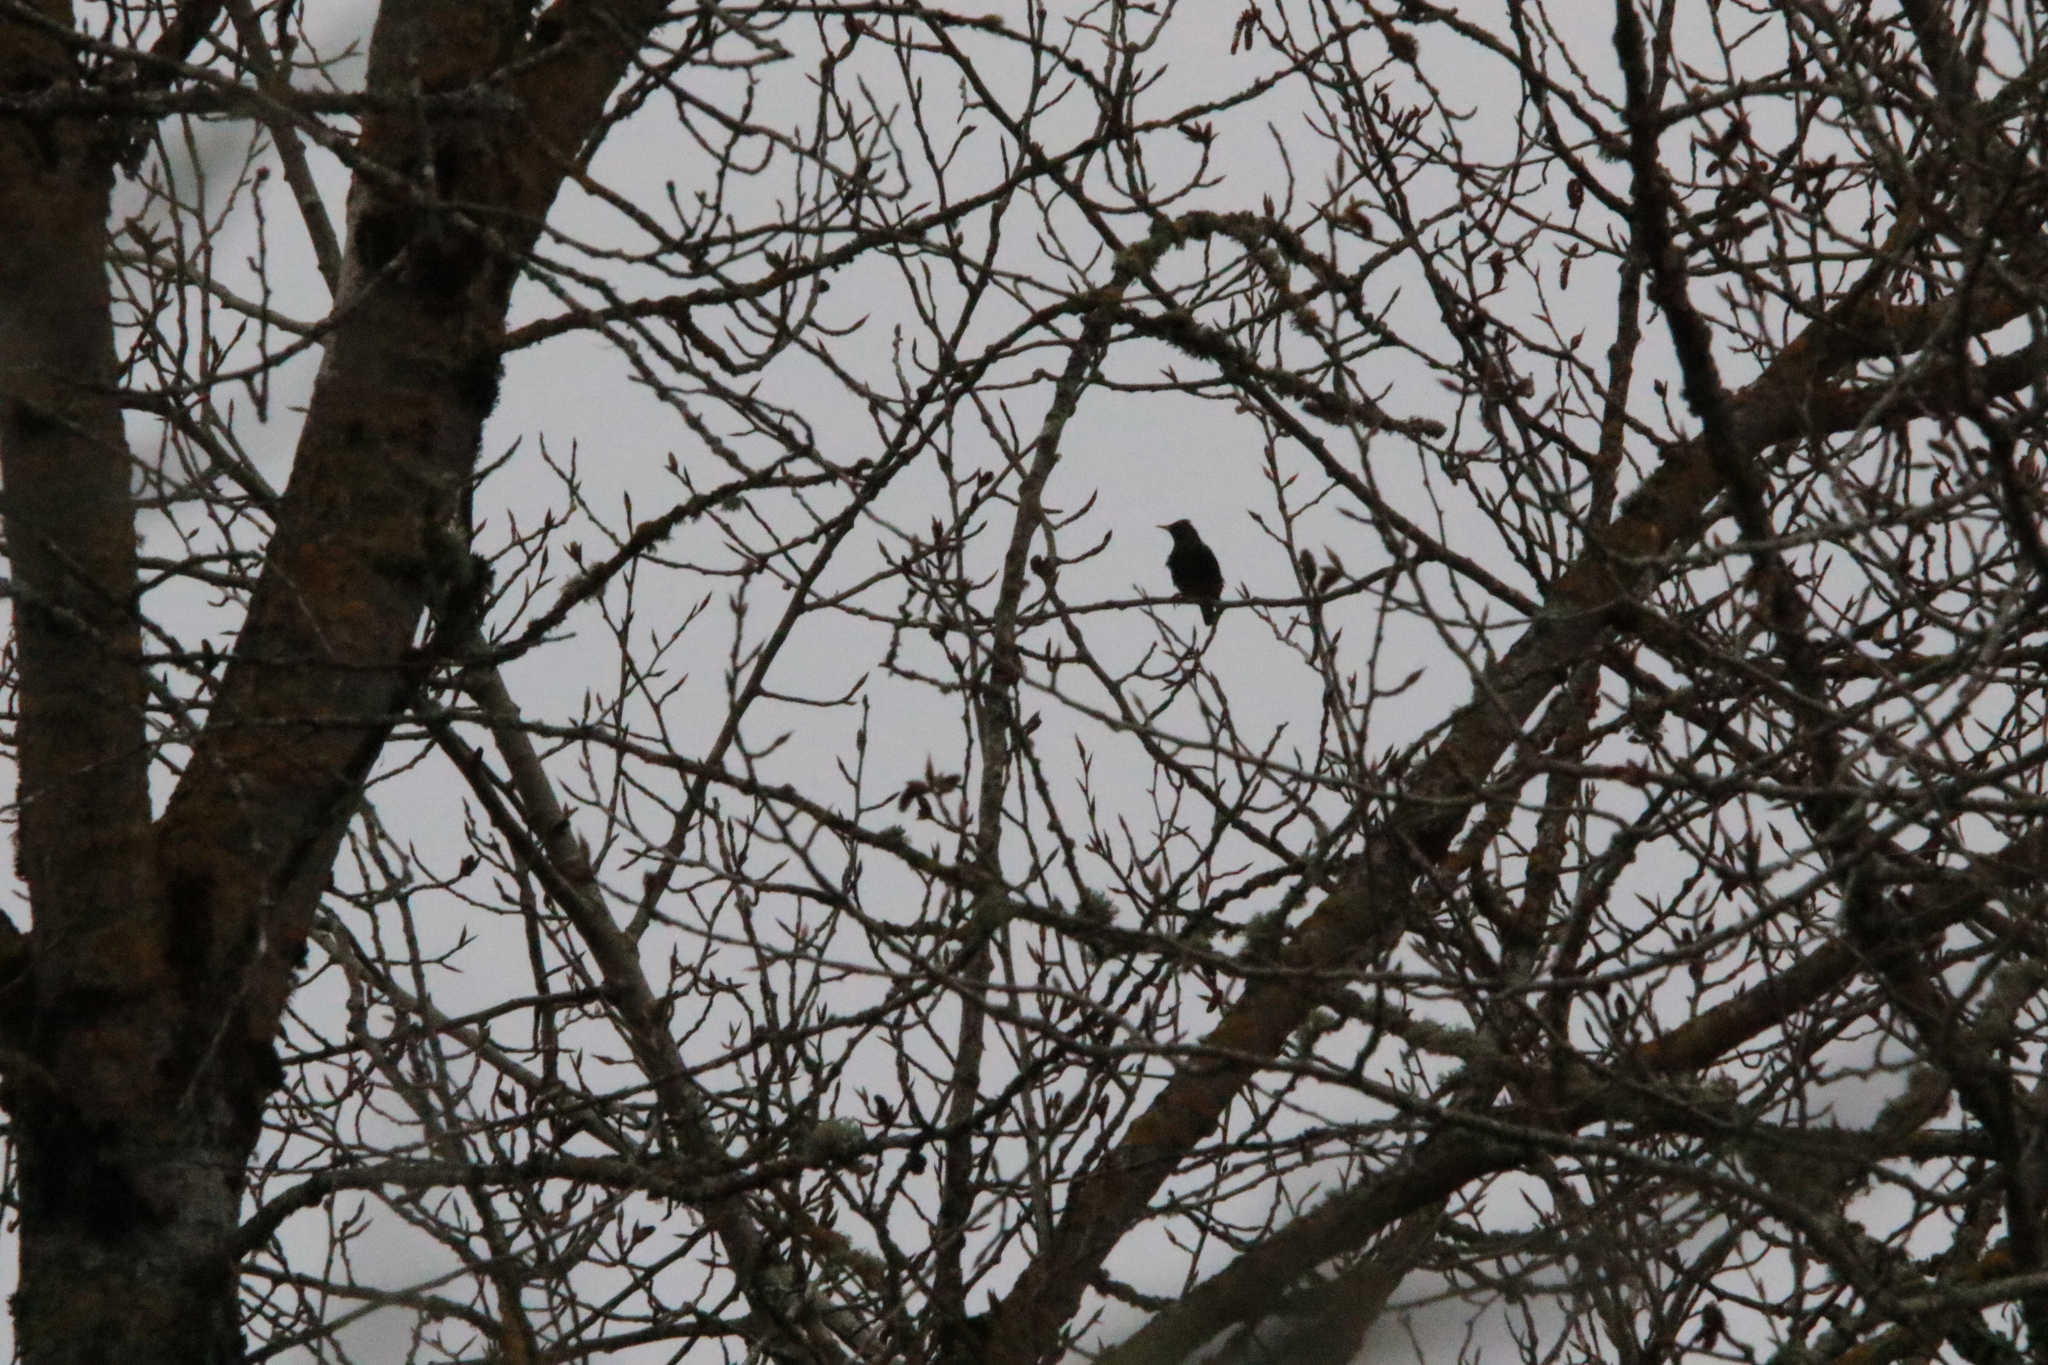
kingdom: Animalia
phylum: Chordata
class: Aves
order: Passeriformes
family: Sturnidae
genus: Sturnus
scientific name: Sturnus vulgaris
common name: Common starling
